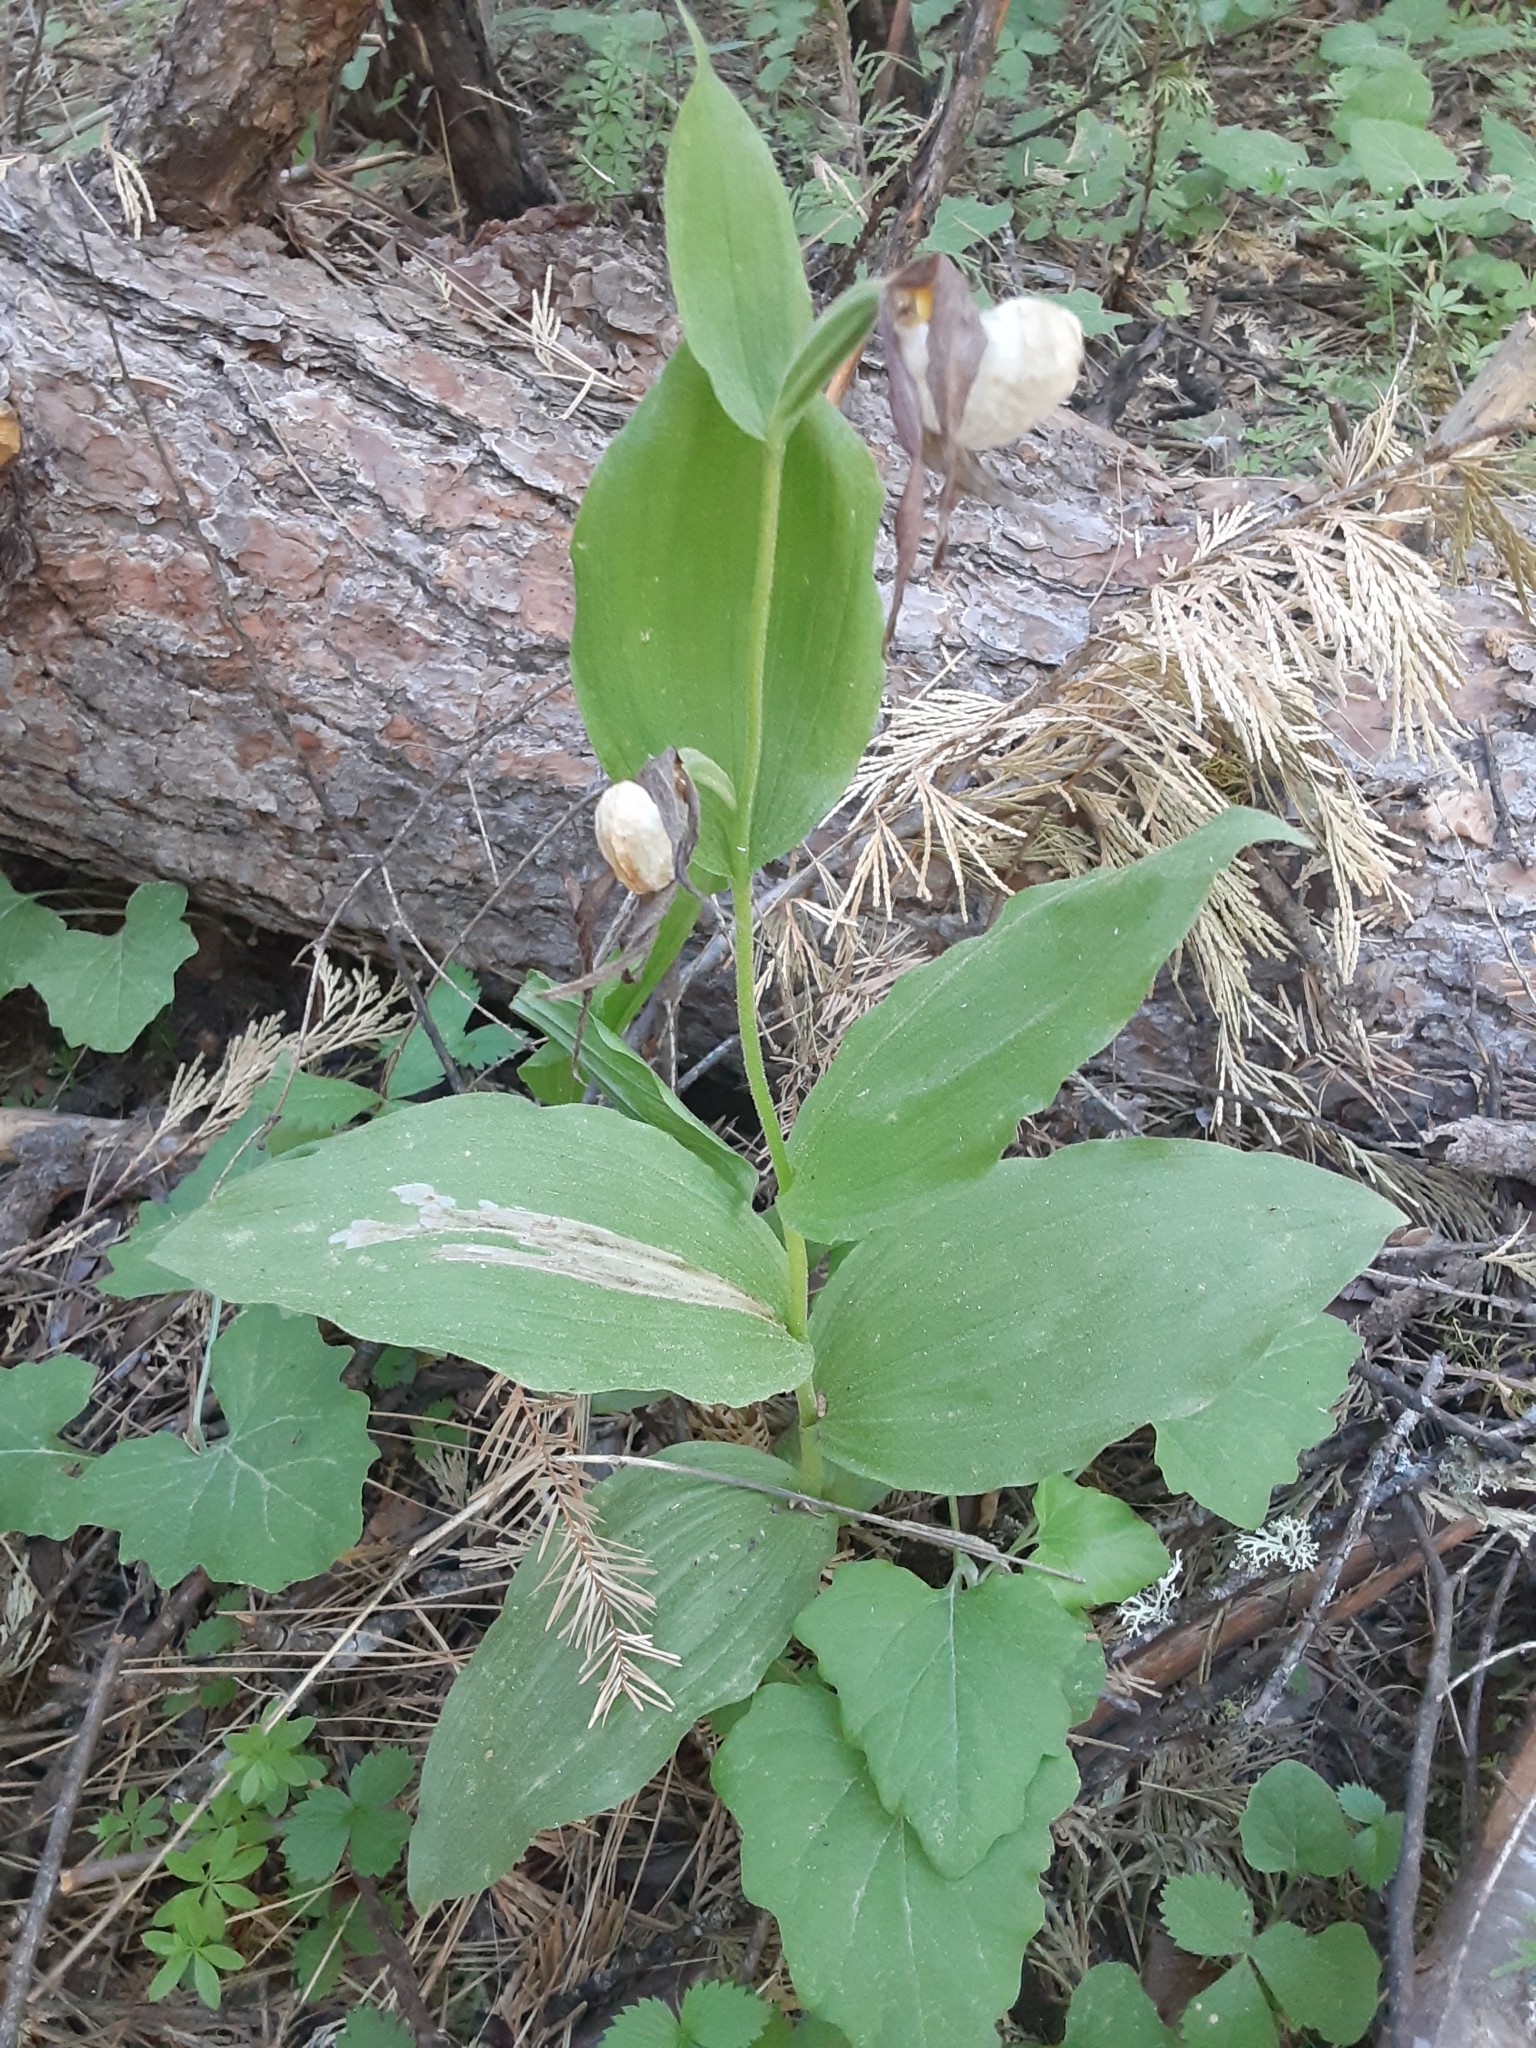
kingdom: Plantae
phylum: Tracheophyta
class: Liliopsida
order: Asparagales
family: Orchidaceae
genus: Cypripedium
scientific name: Cypripedium montanum
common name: Mountain lady's-slipper
